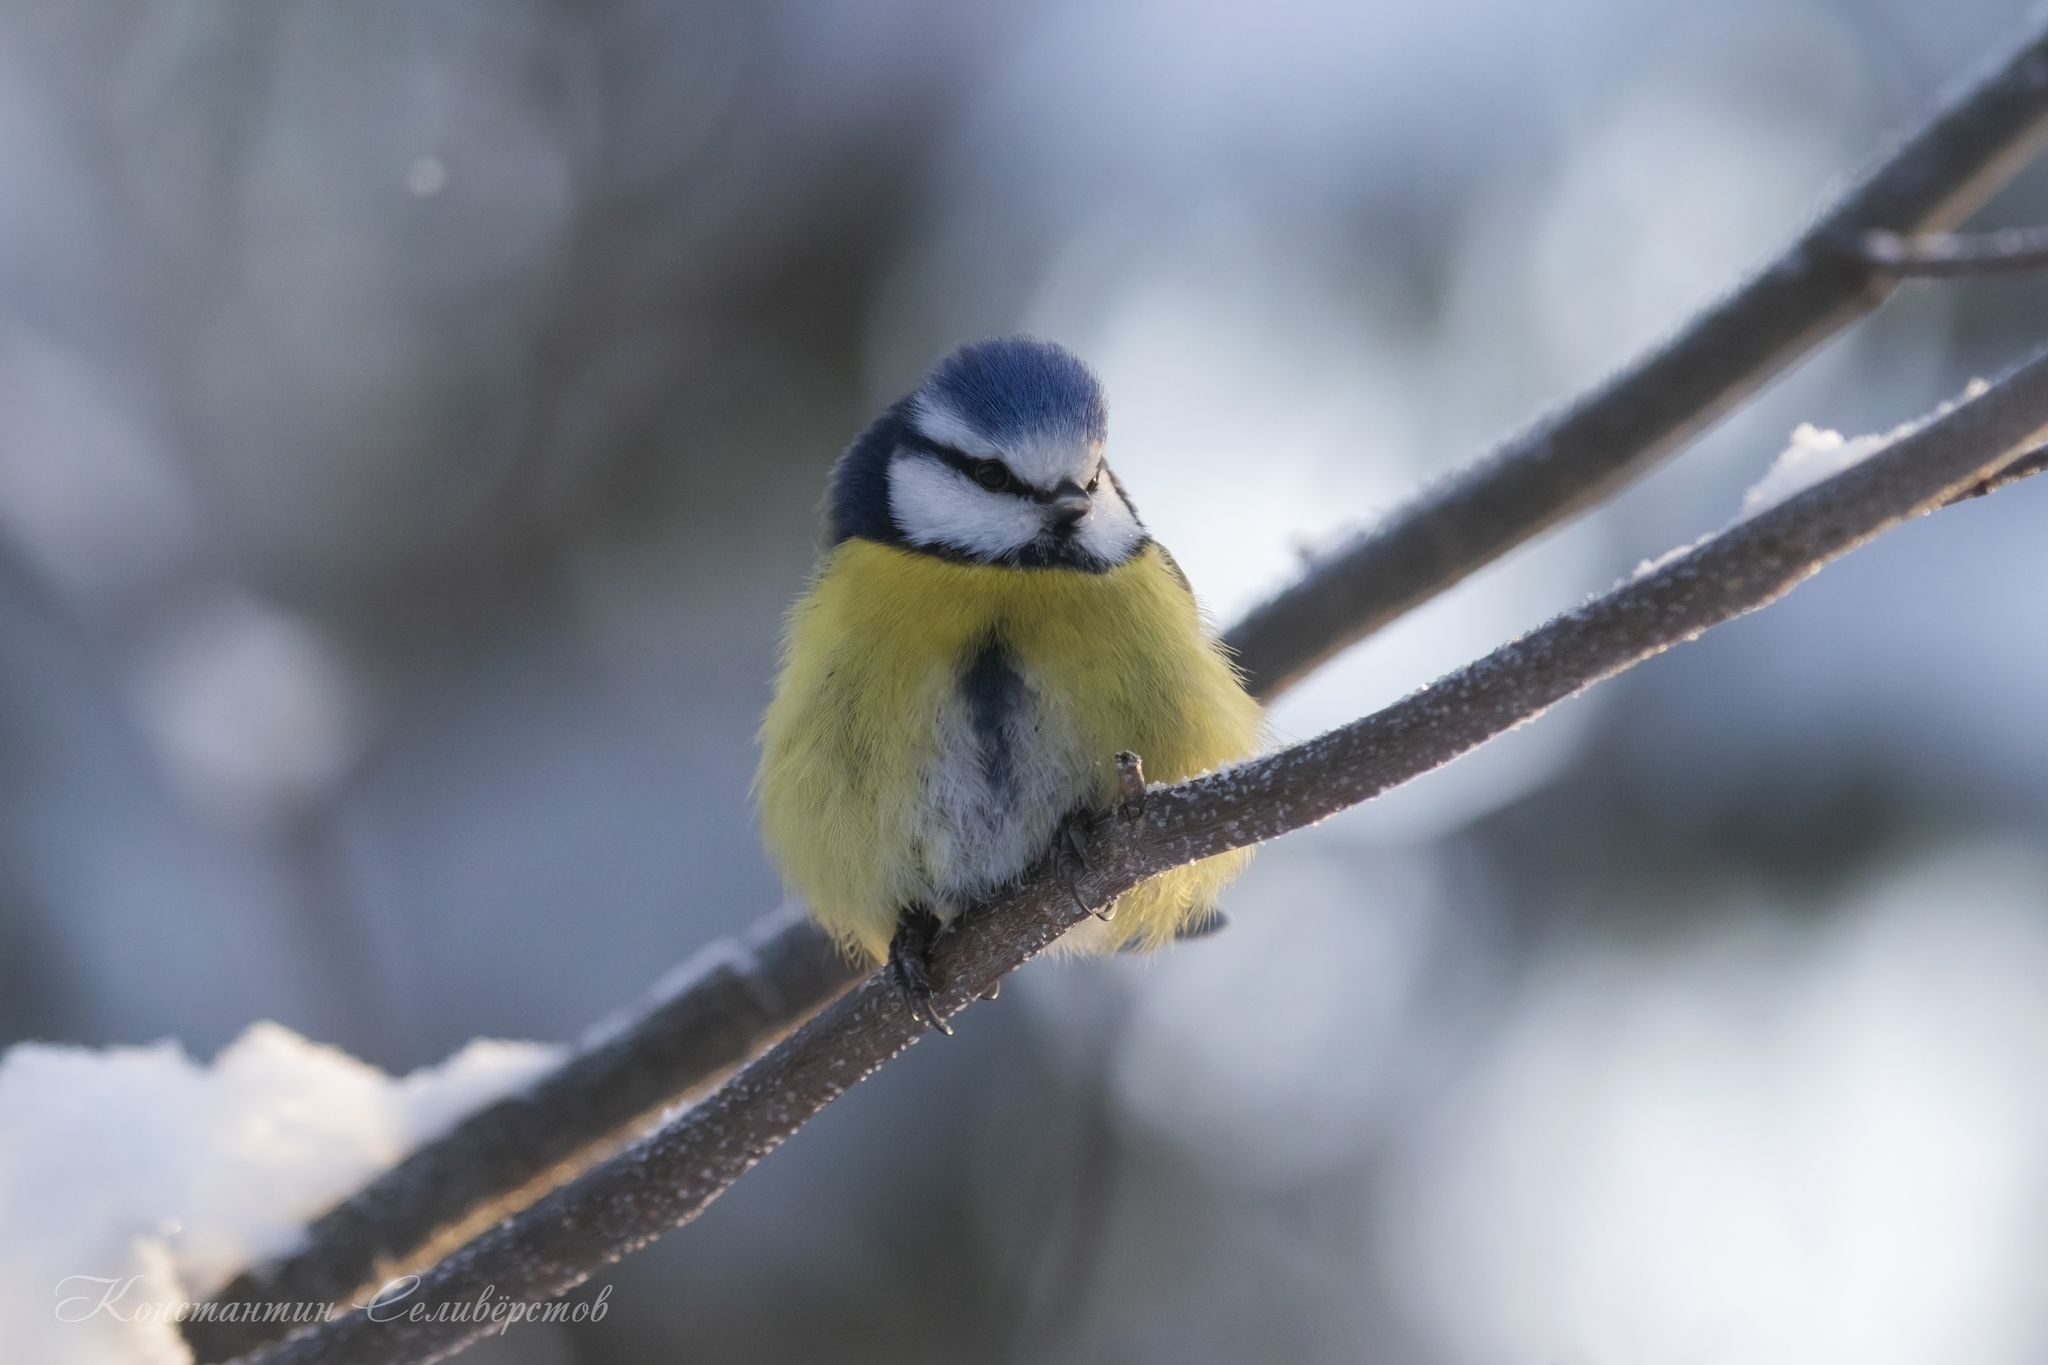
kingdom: Animalia
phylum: Chordata
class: Aves
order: Passeriformes
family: Paridae
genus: Cyanistes
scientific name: Cyanistes caeruleus
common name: Eurasian blue tit
